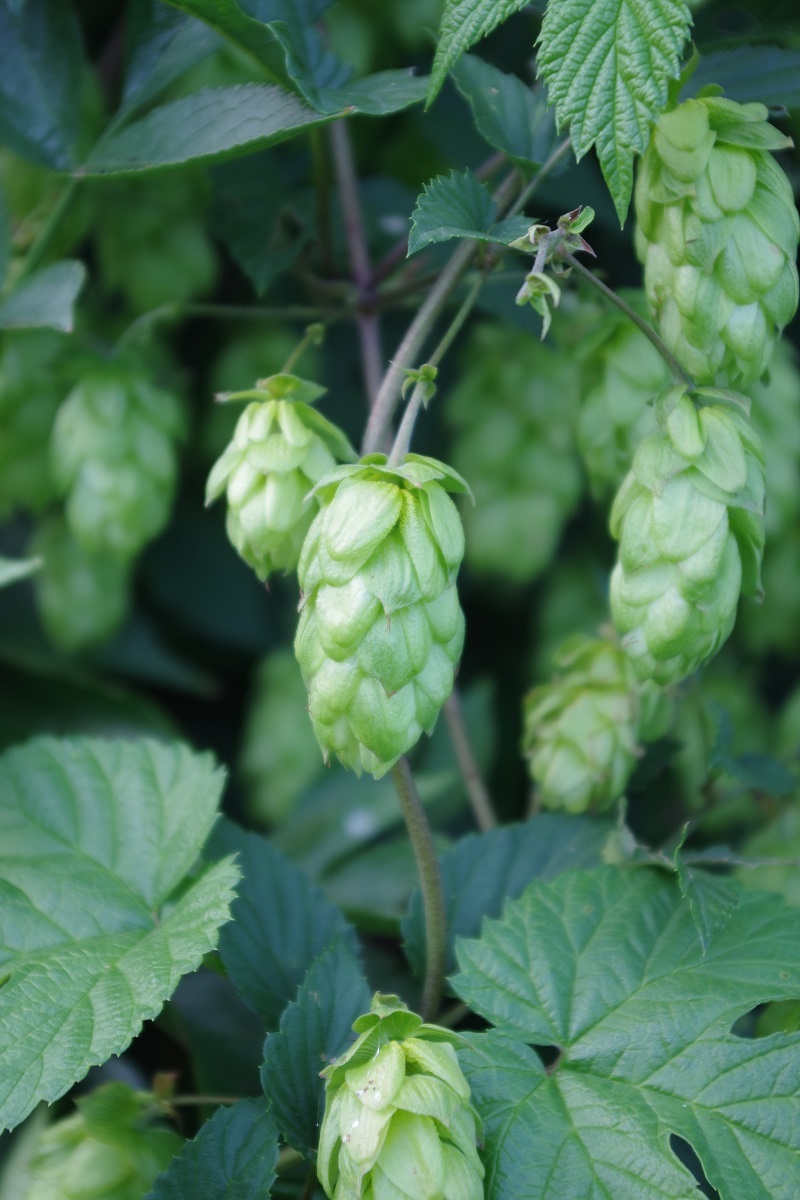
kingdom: Plantae
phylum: Tracheophyta
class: Magnoliopsida
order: Rosales
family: Cannabaceae
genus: Humulus
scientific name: Humulus lupulus
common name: Hop
